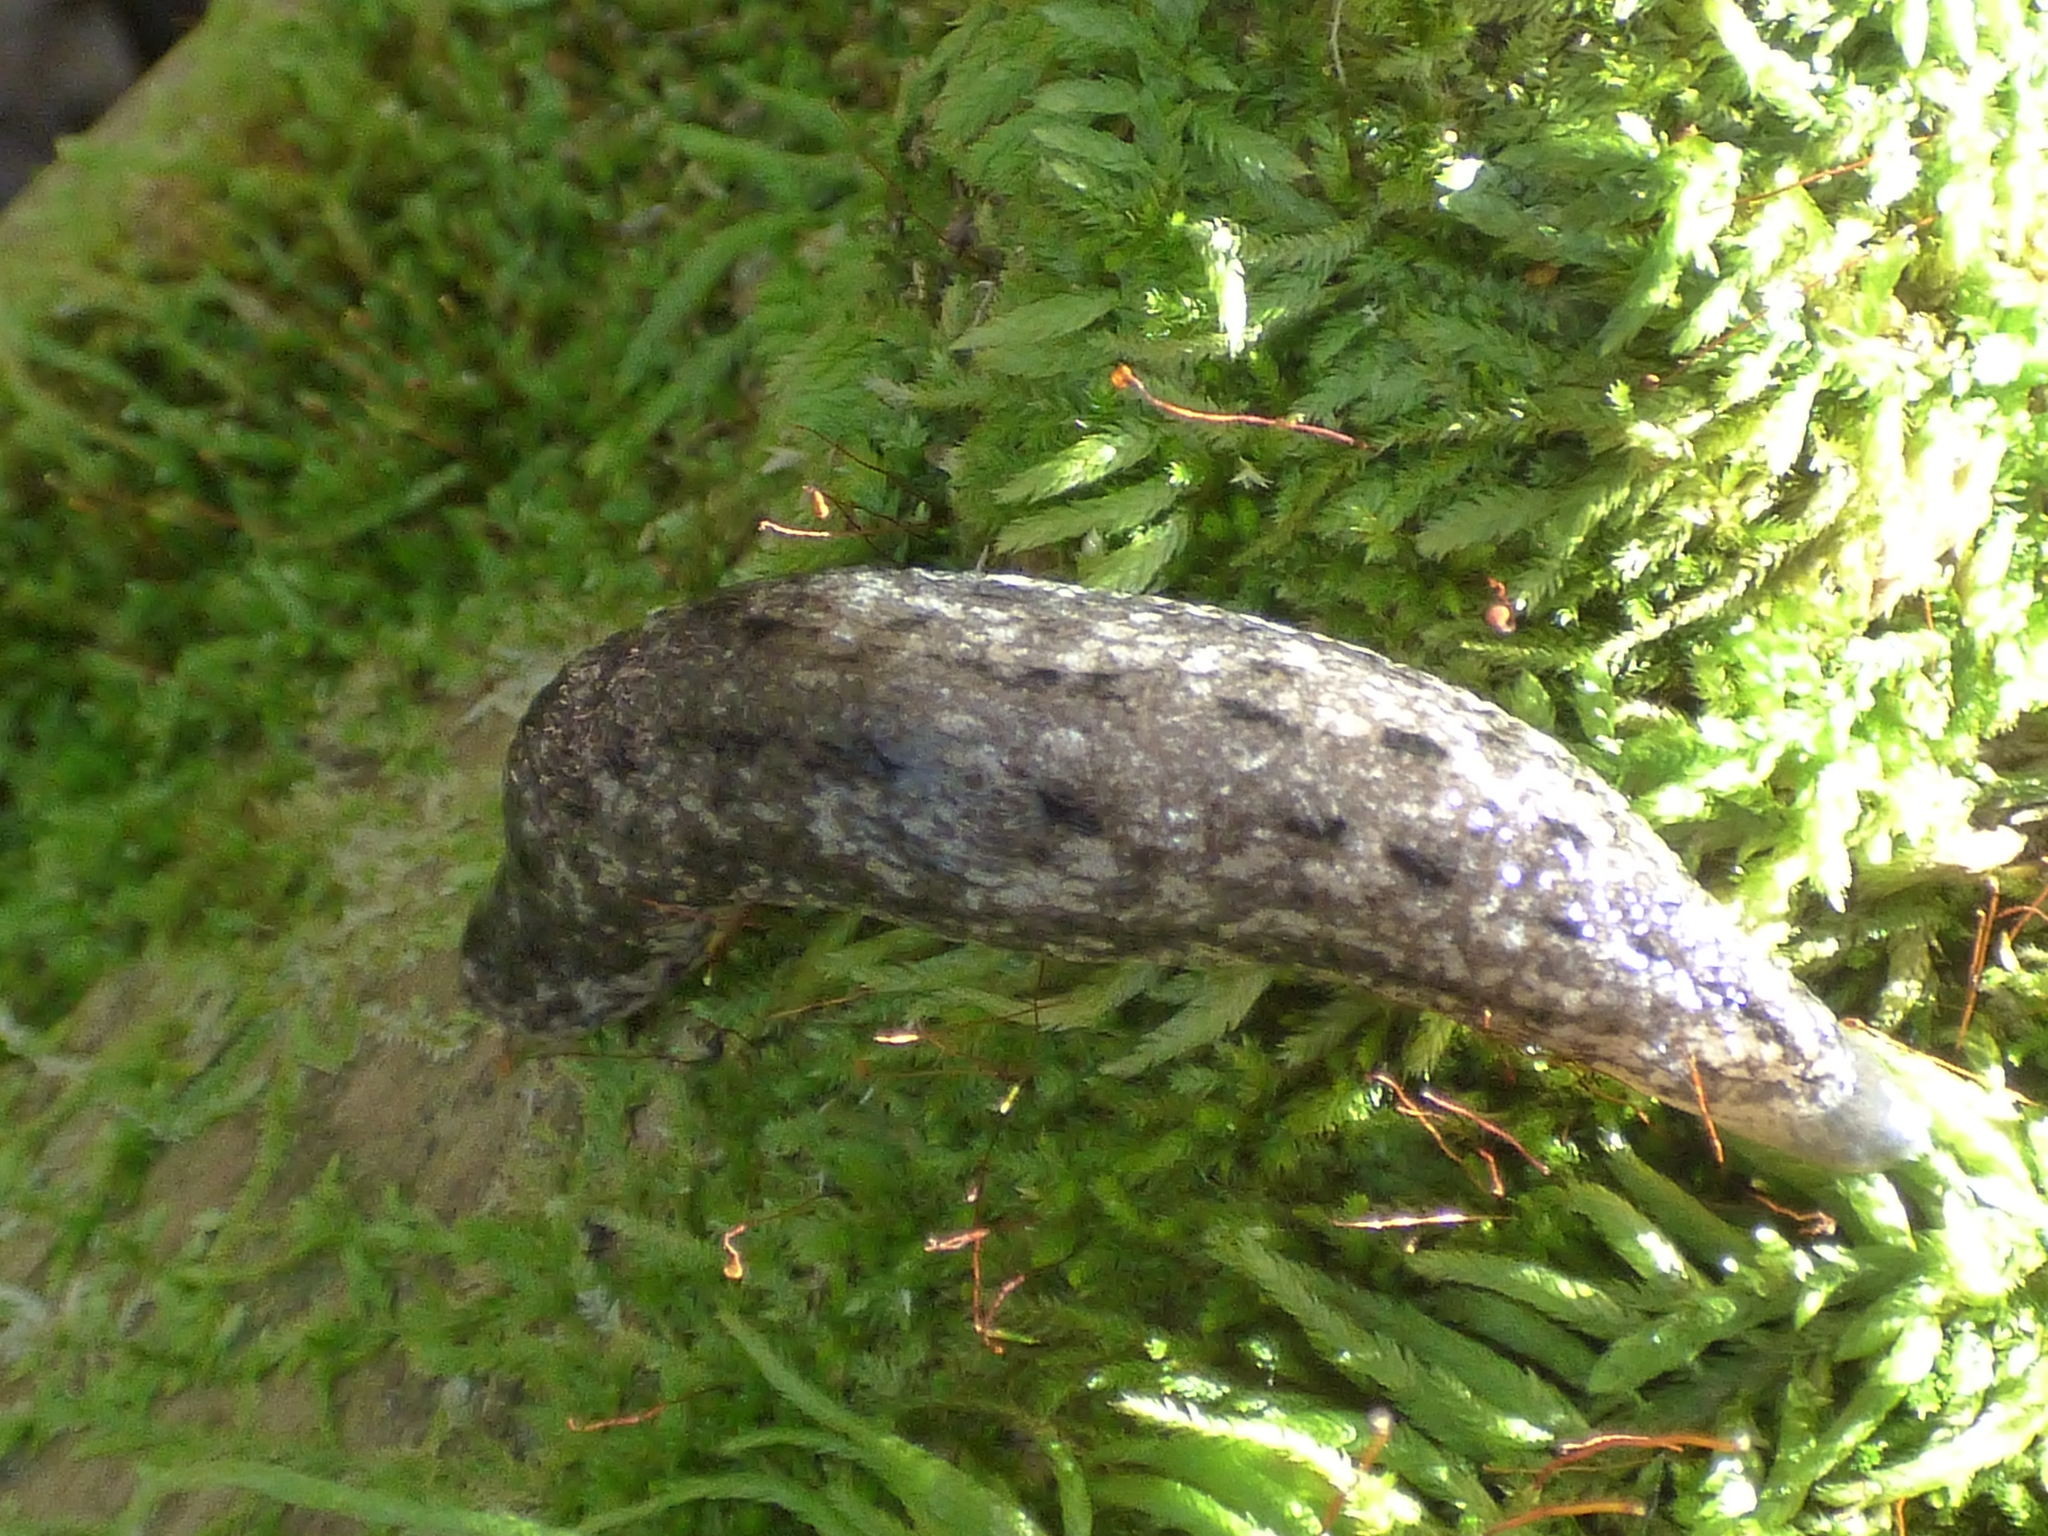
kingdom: Animalia
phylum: Mollusca
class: Gastropoda
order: Stylommatophora
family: Philomycidae
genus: Philomycus
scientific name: Philomycus carolinianus
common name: Carolina mantleslug
